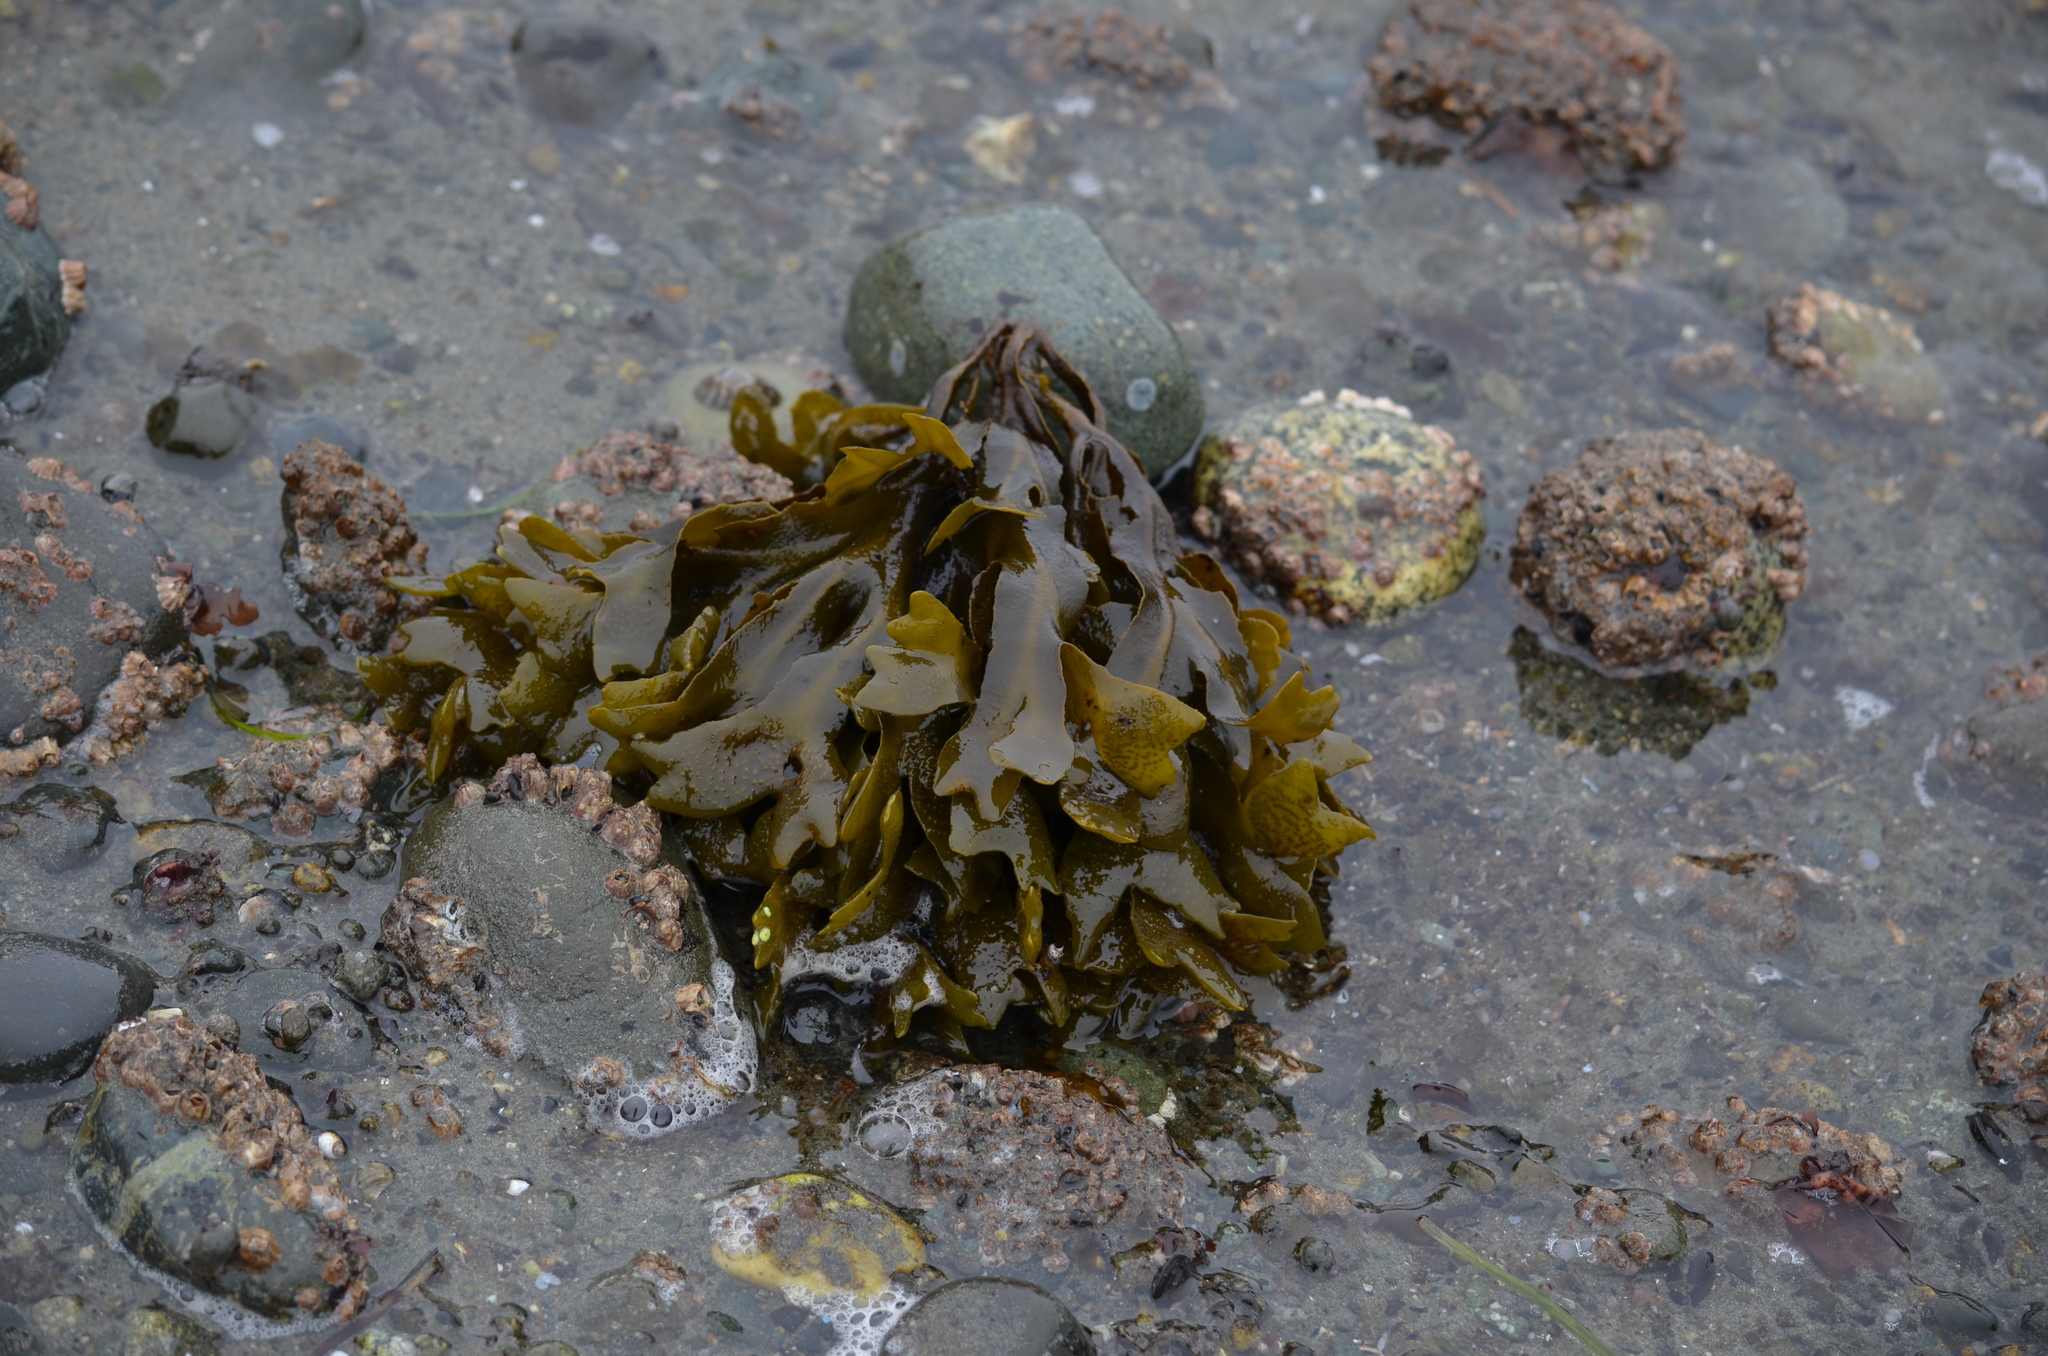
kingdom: Chromista
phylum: Ochrophyta
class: Phaeophyceae
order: Fucales
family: Fucaceae
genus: Fucus
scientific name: Fucus distichus
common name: Rockweed
